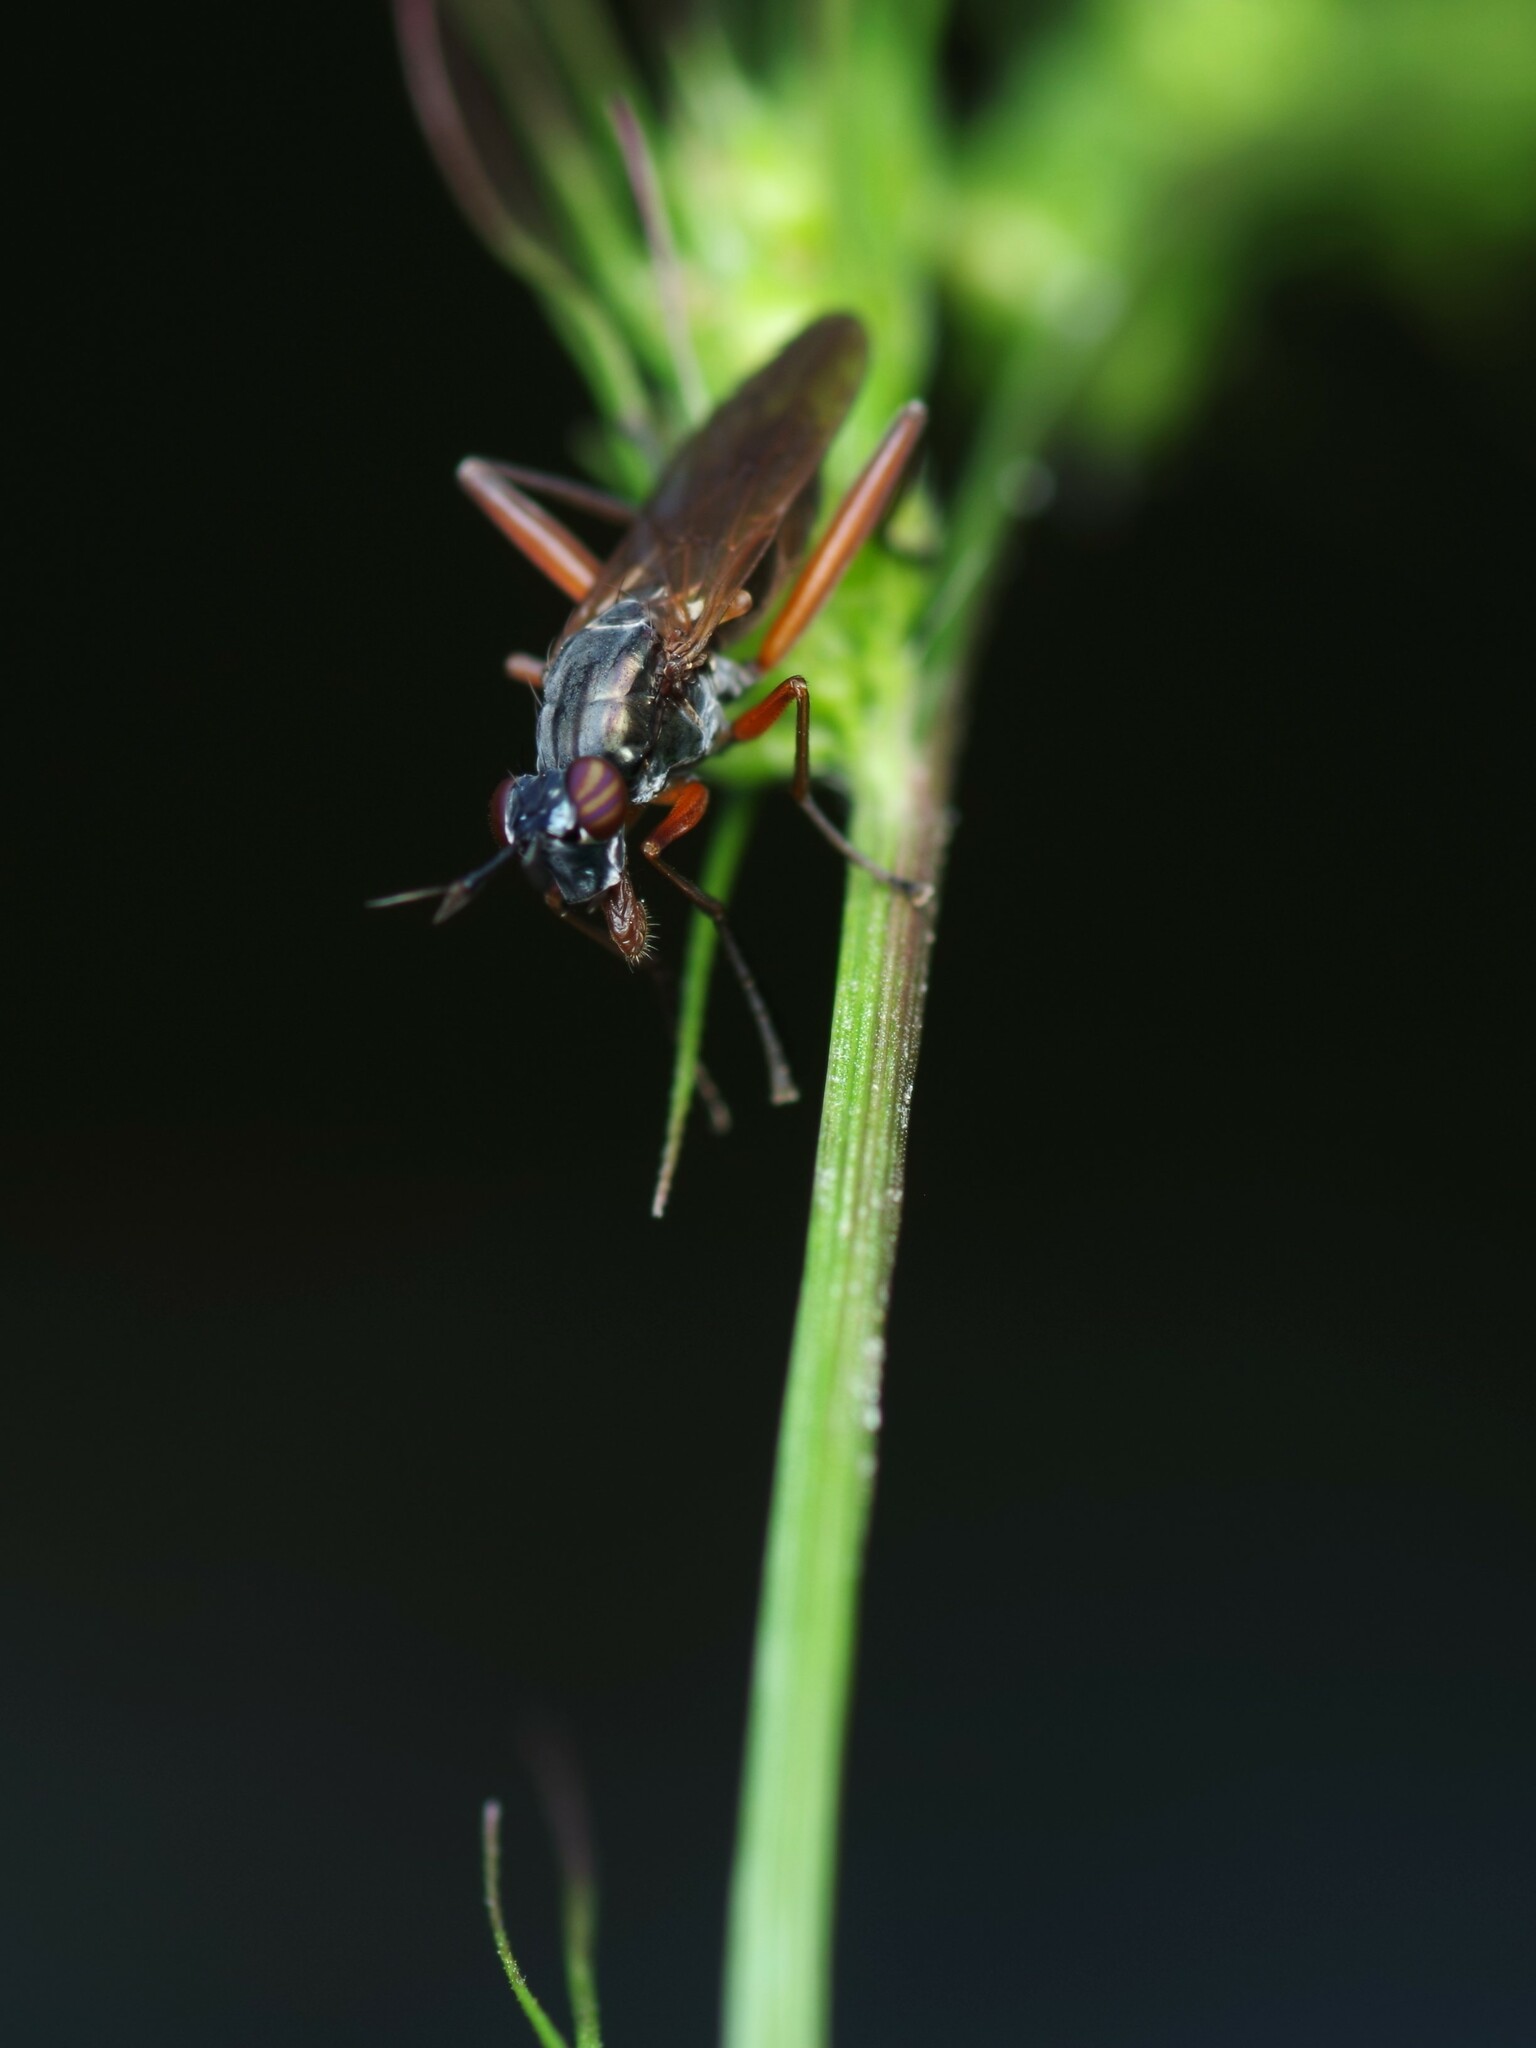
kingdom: Animalia
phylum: Arthropoda
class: Insecta
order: Diptera
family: Sciomyzidae
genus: Sepedon
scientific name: Sepedon sphegea
